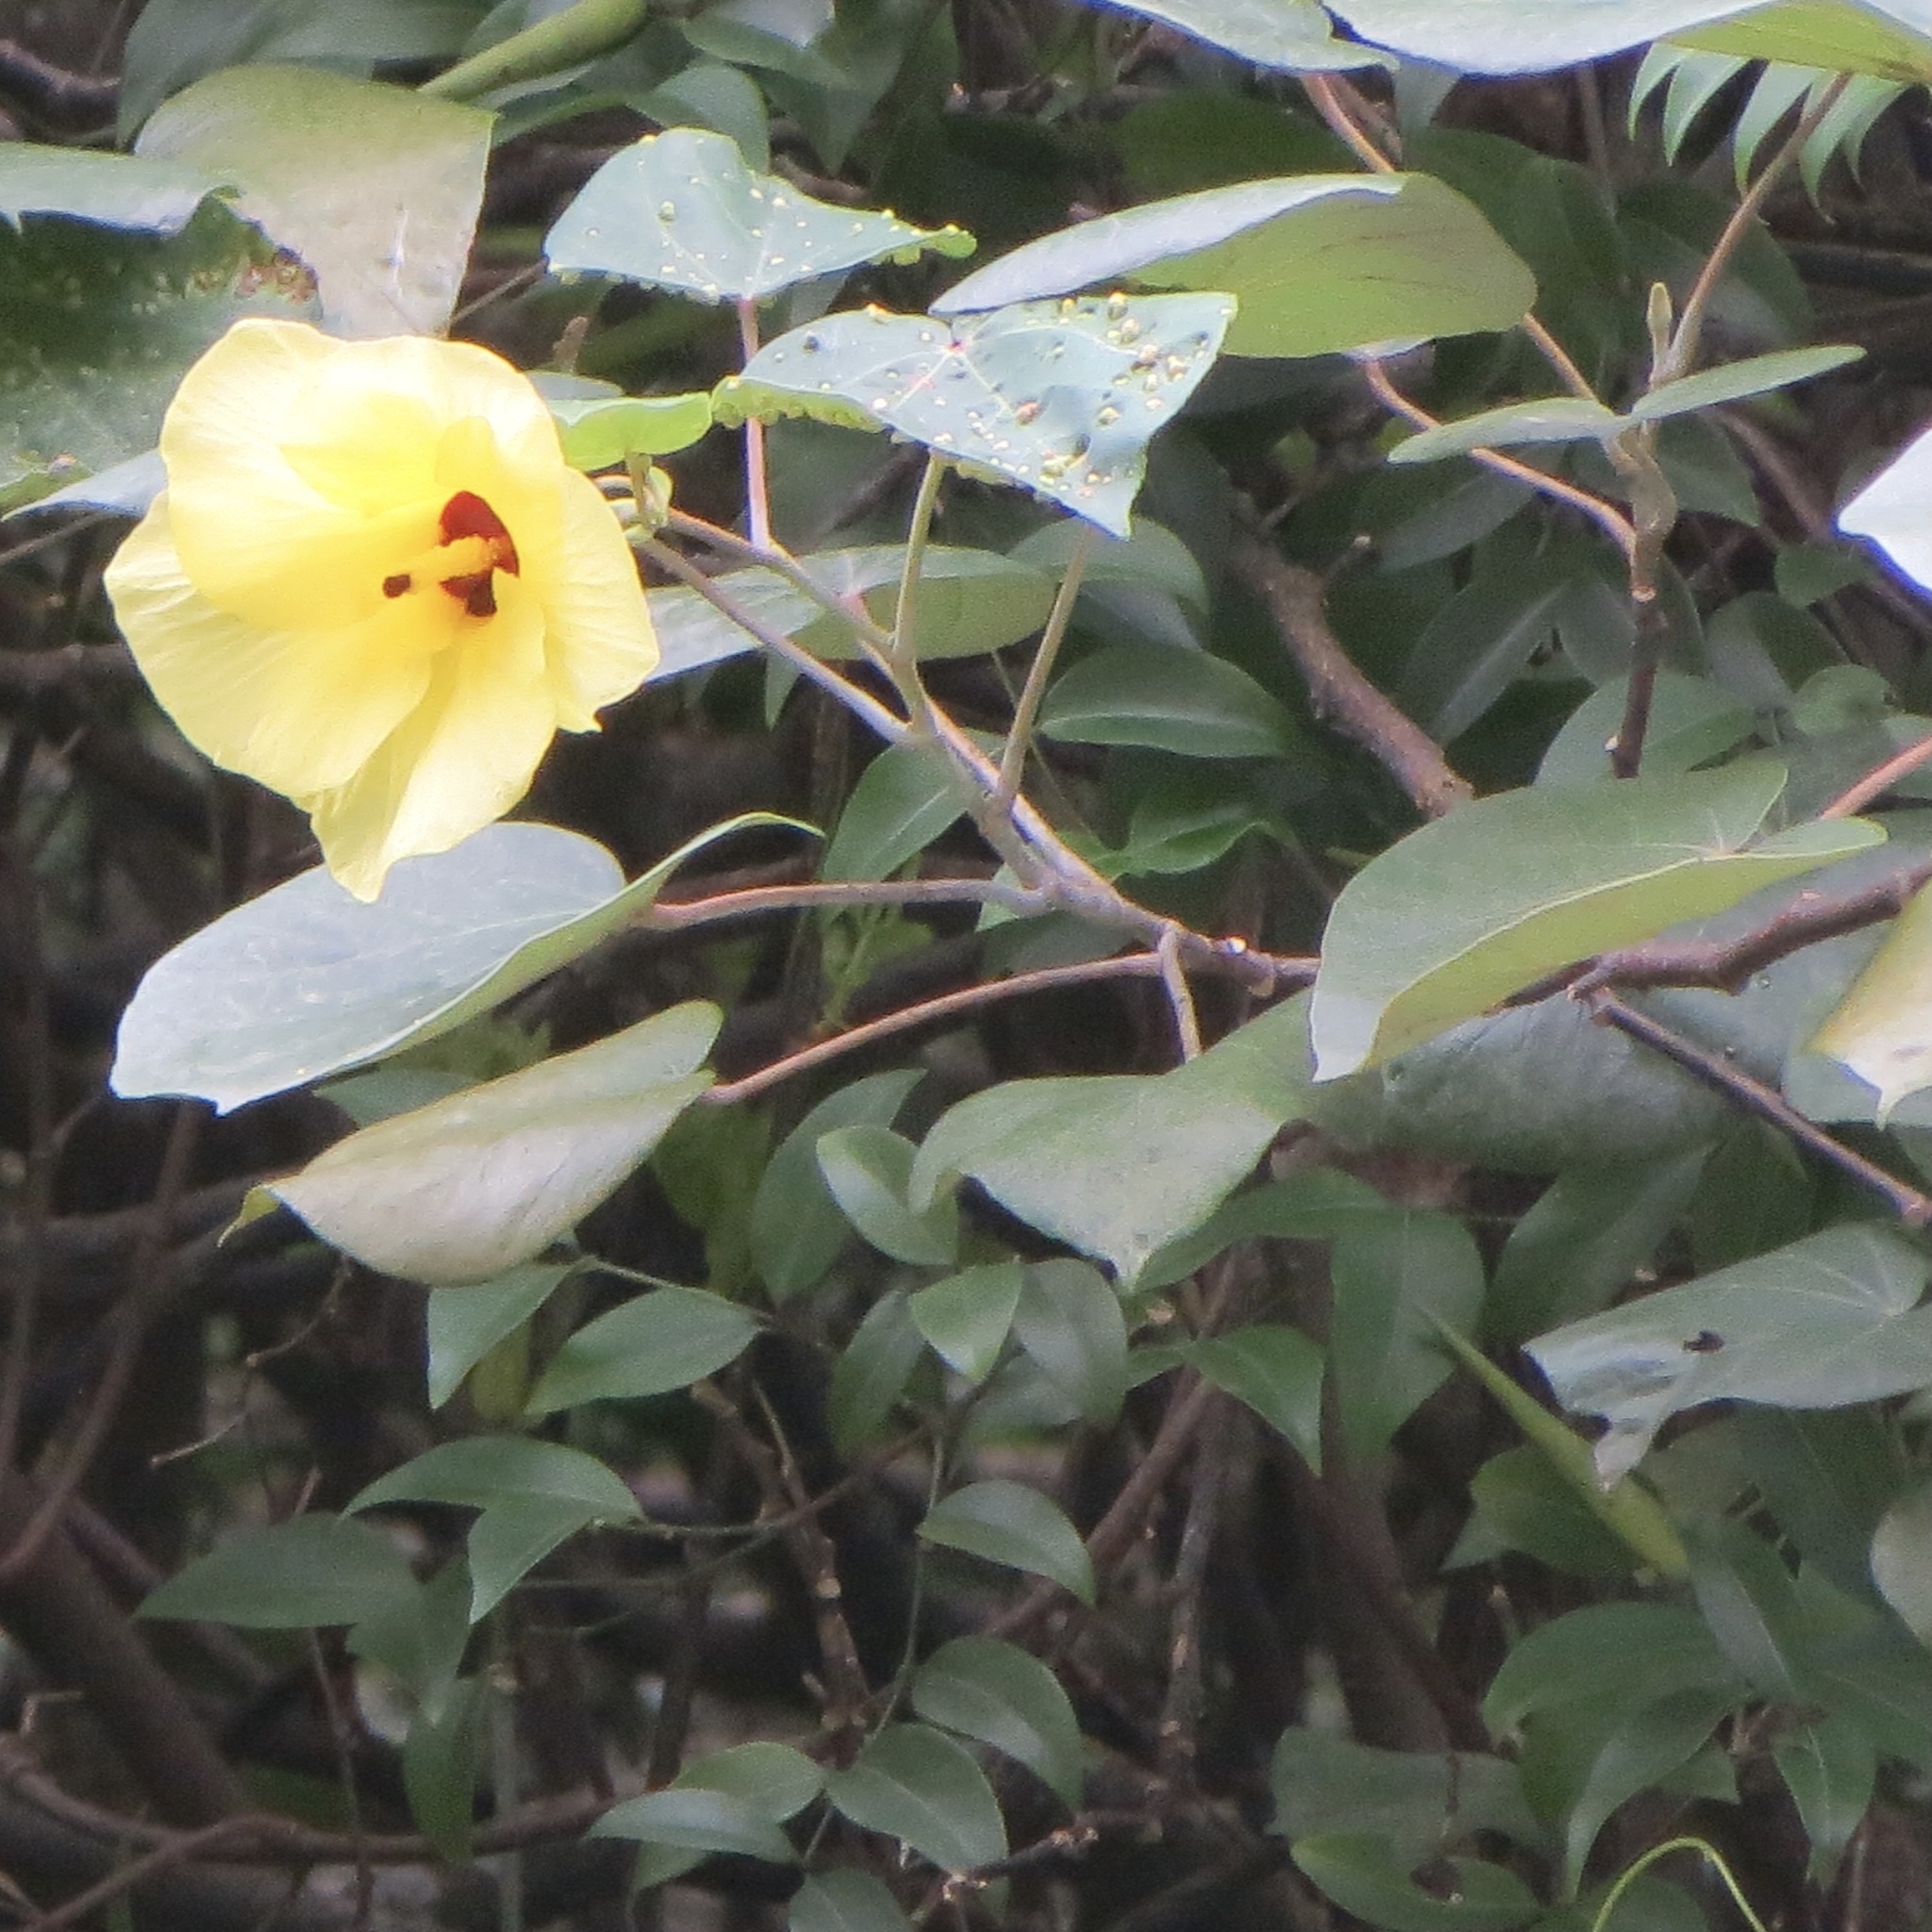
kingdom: Plantae
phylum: Tracheophyta
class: Magnoliopsida
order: Malvales
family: Malvaceae
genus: Talipariti
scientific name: Talipariti tiliaceum
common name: Sea hibiscus
